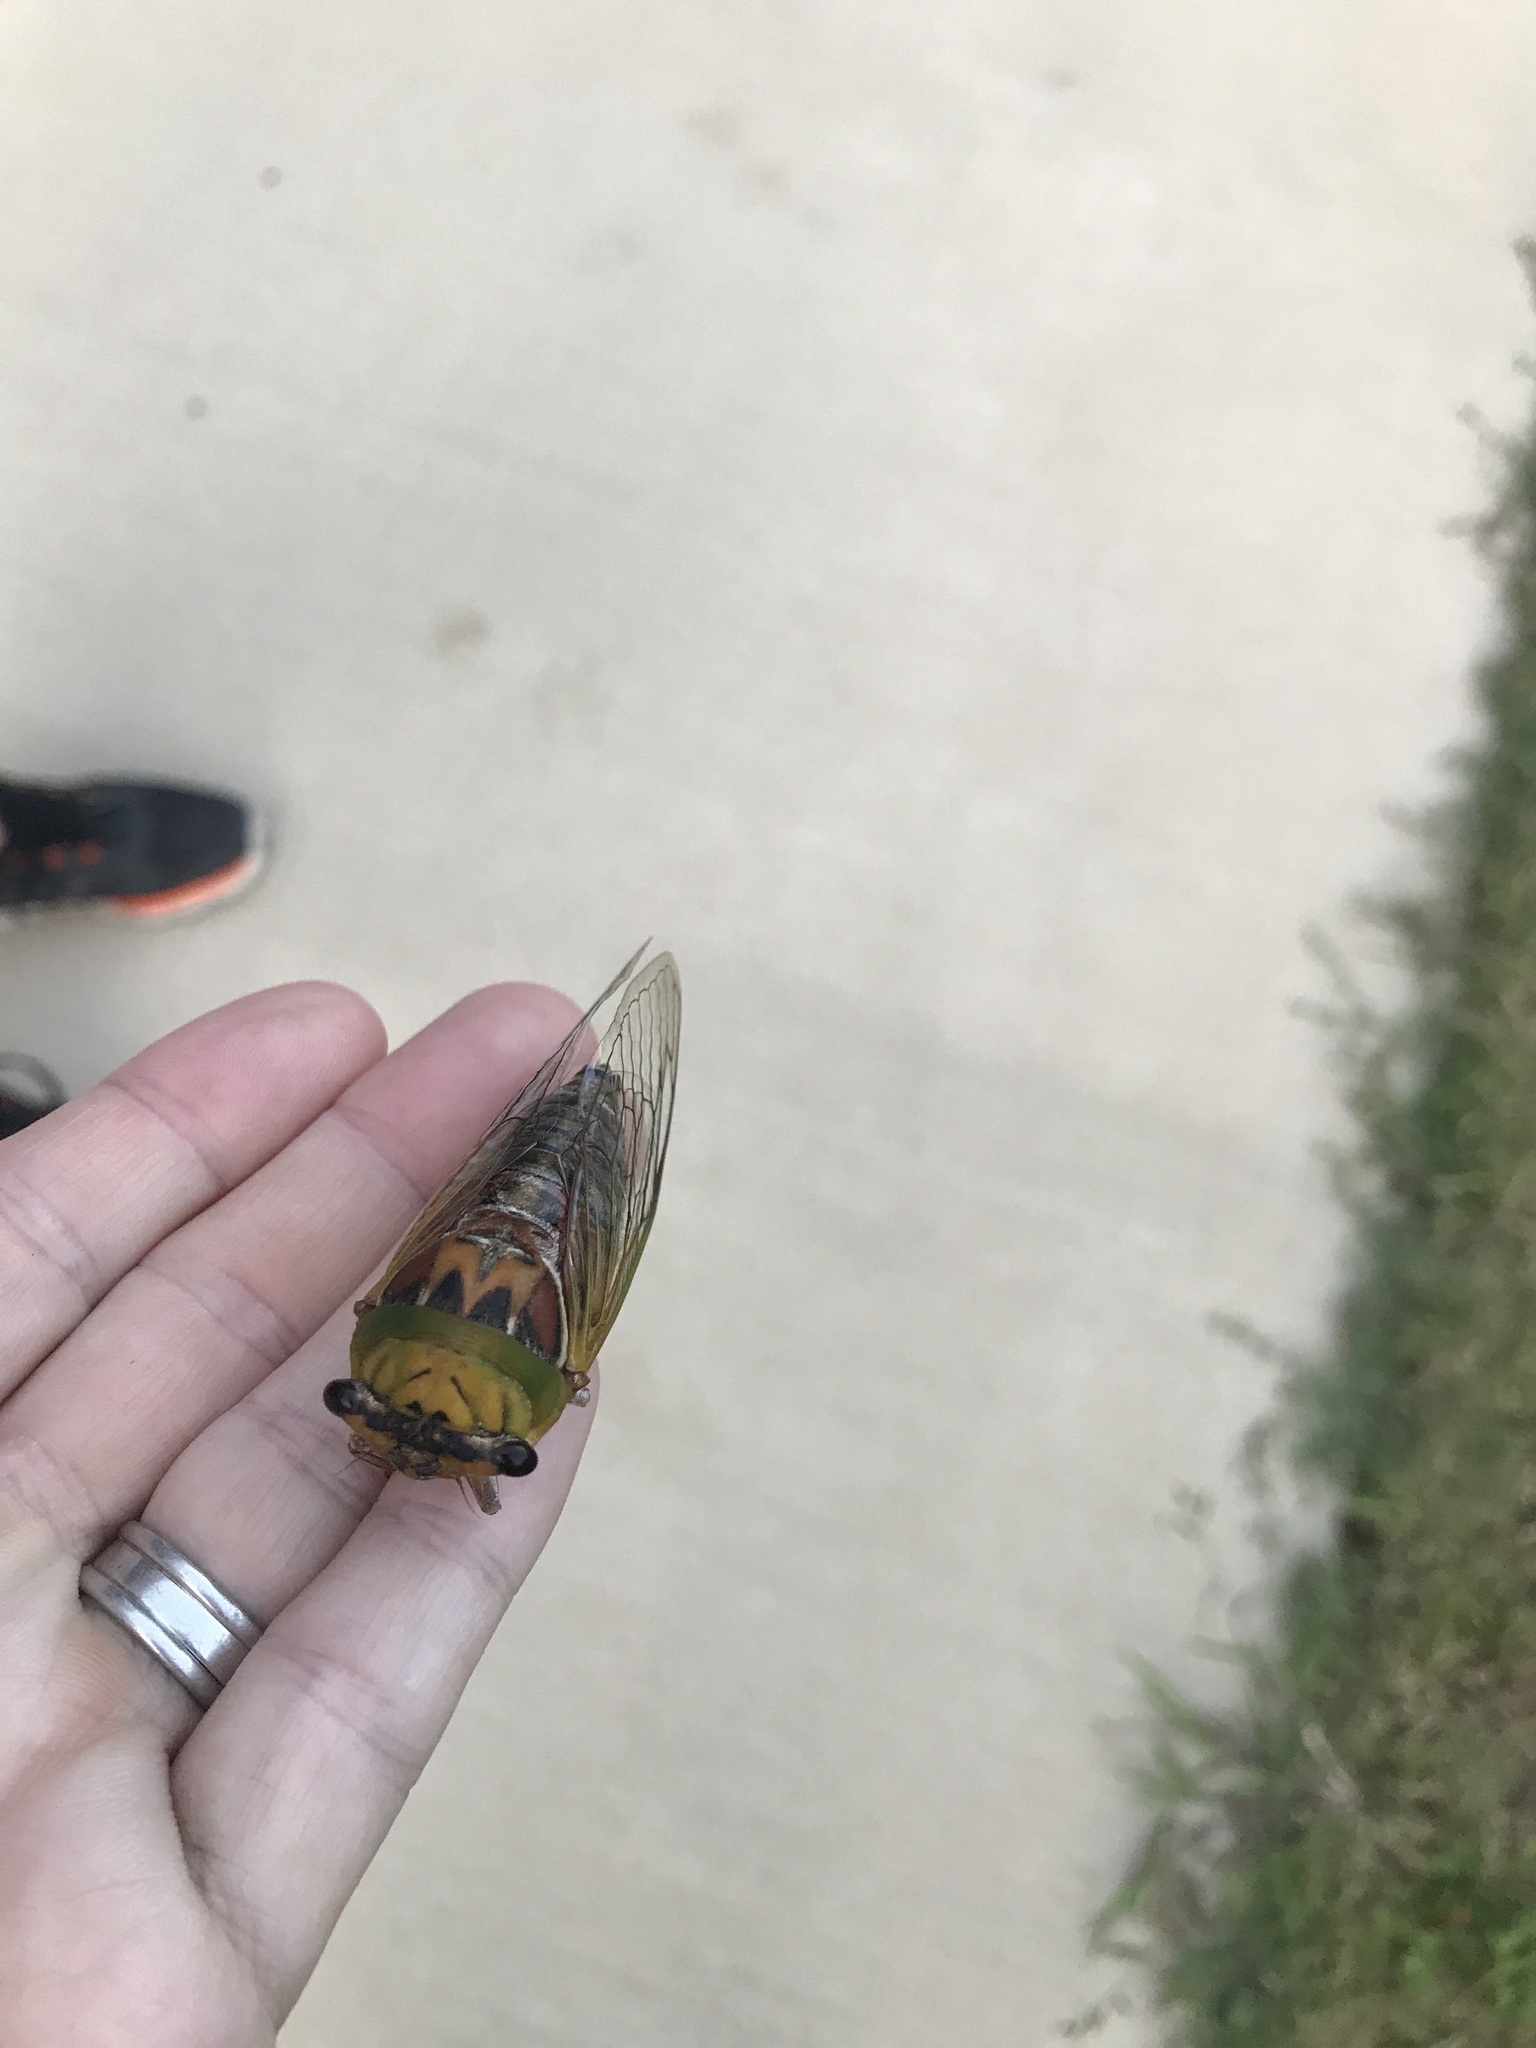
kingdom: Animalia
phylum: Arthropoda
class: Insecta
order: Hemiptera
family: Cicadidae
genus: Megatibicen
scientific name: Megatibicen pronotalis
